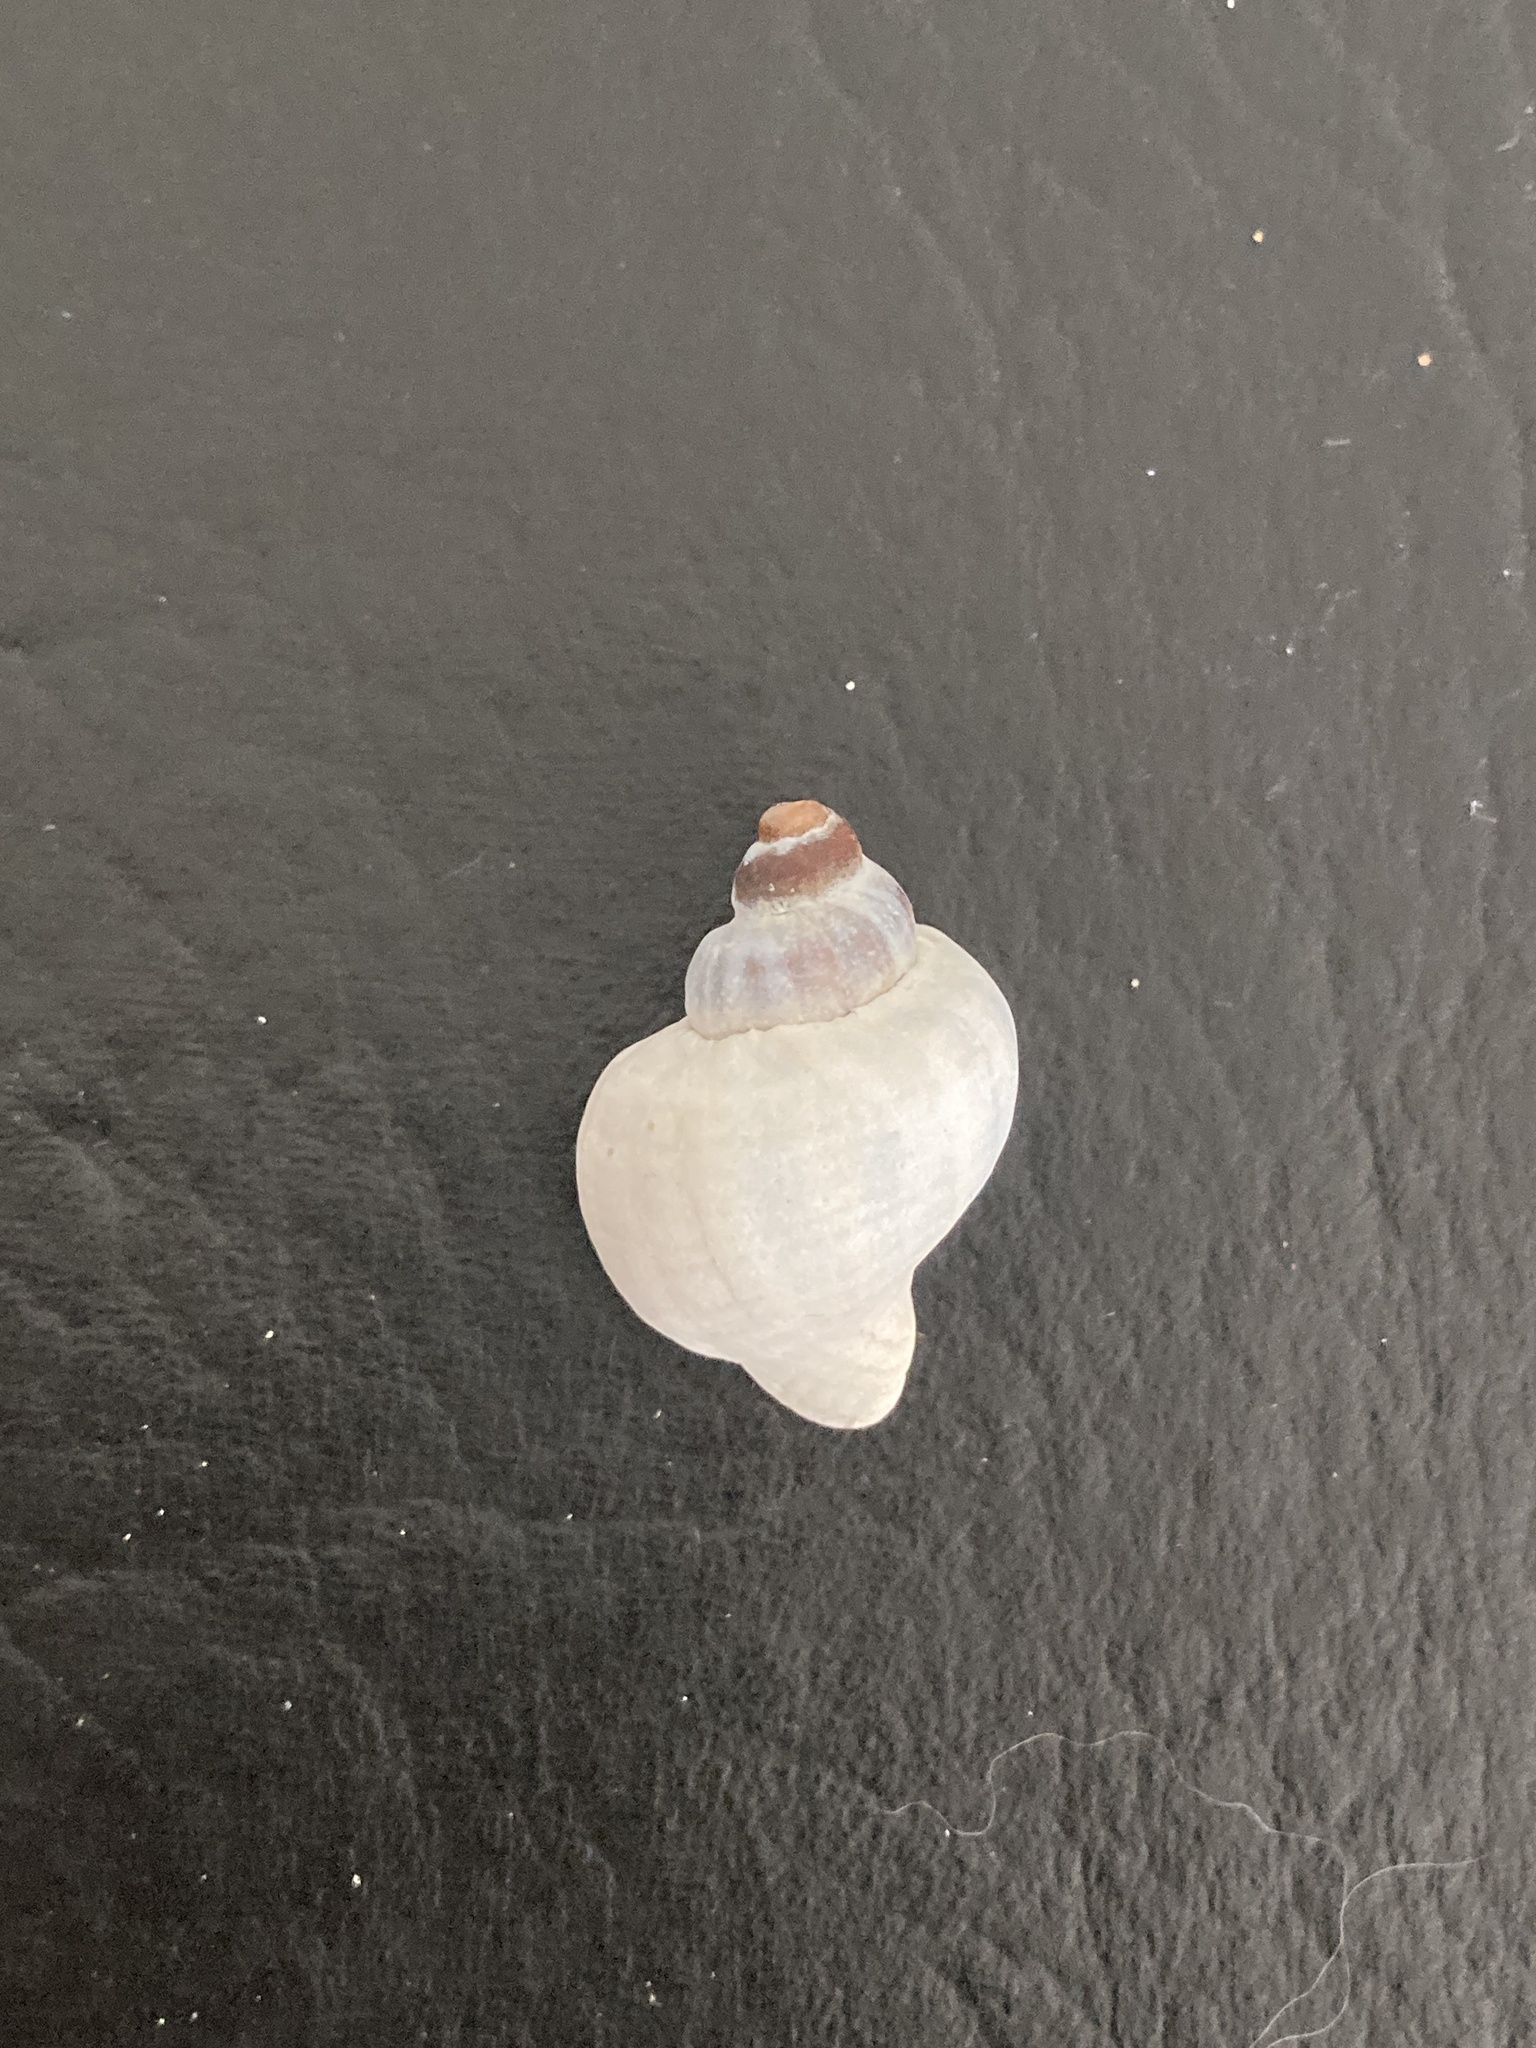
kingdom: Animalia
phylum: Mollusca
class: Gastropoda
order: Neogastropoda
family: Muricidae
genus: Trophon
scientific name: Trophon geversianus
